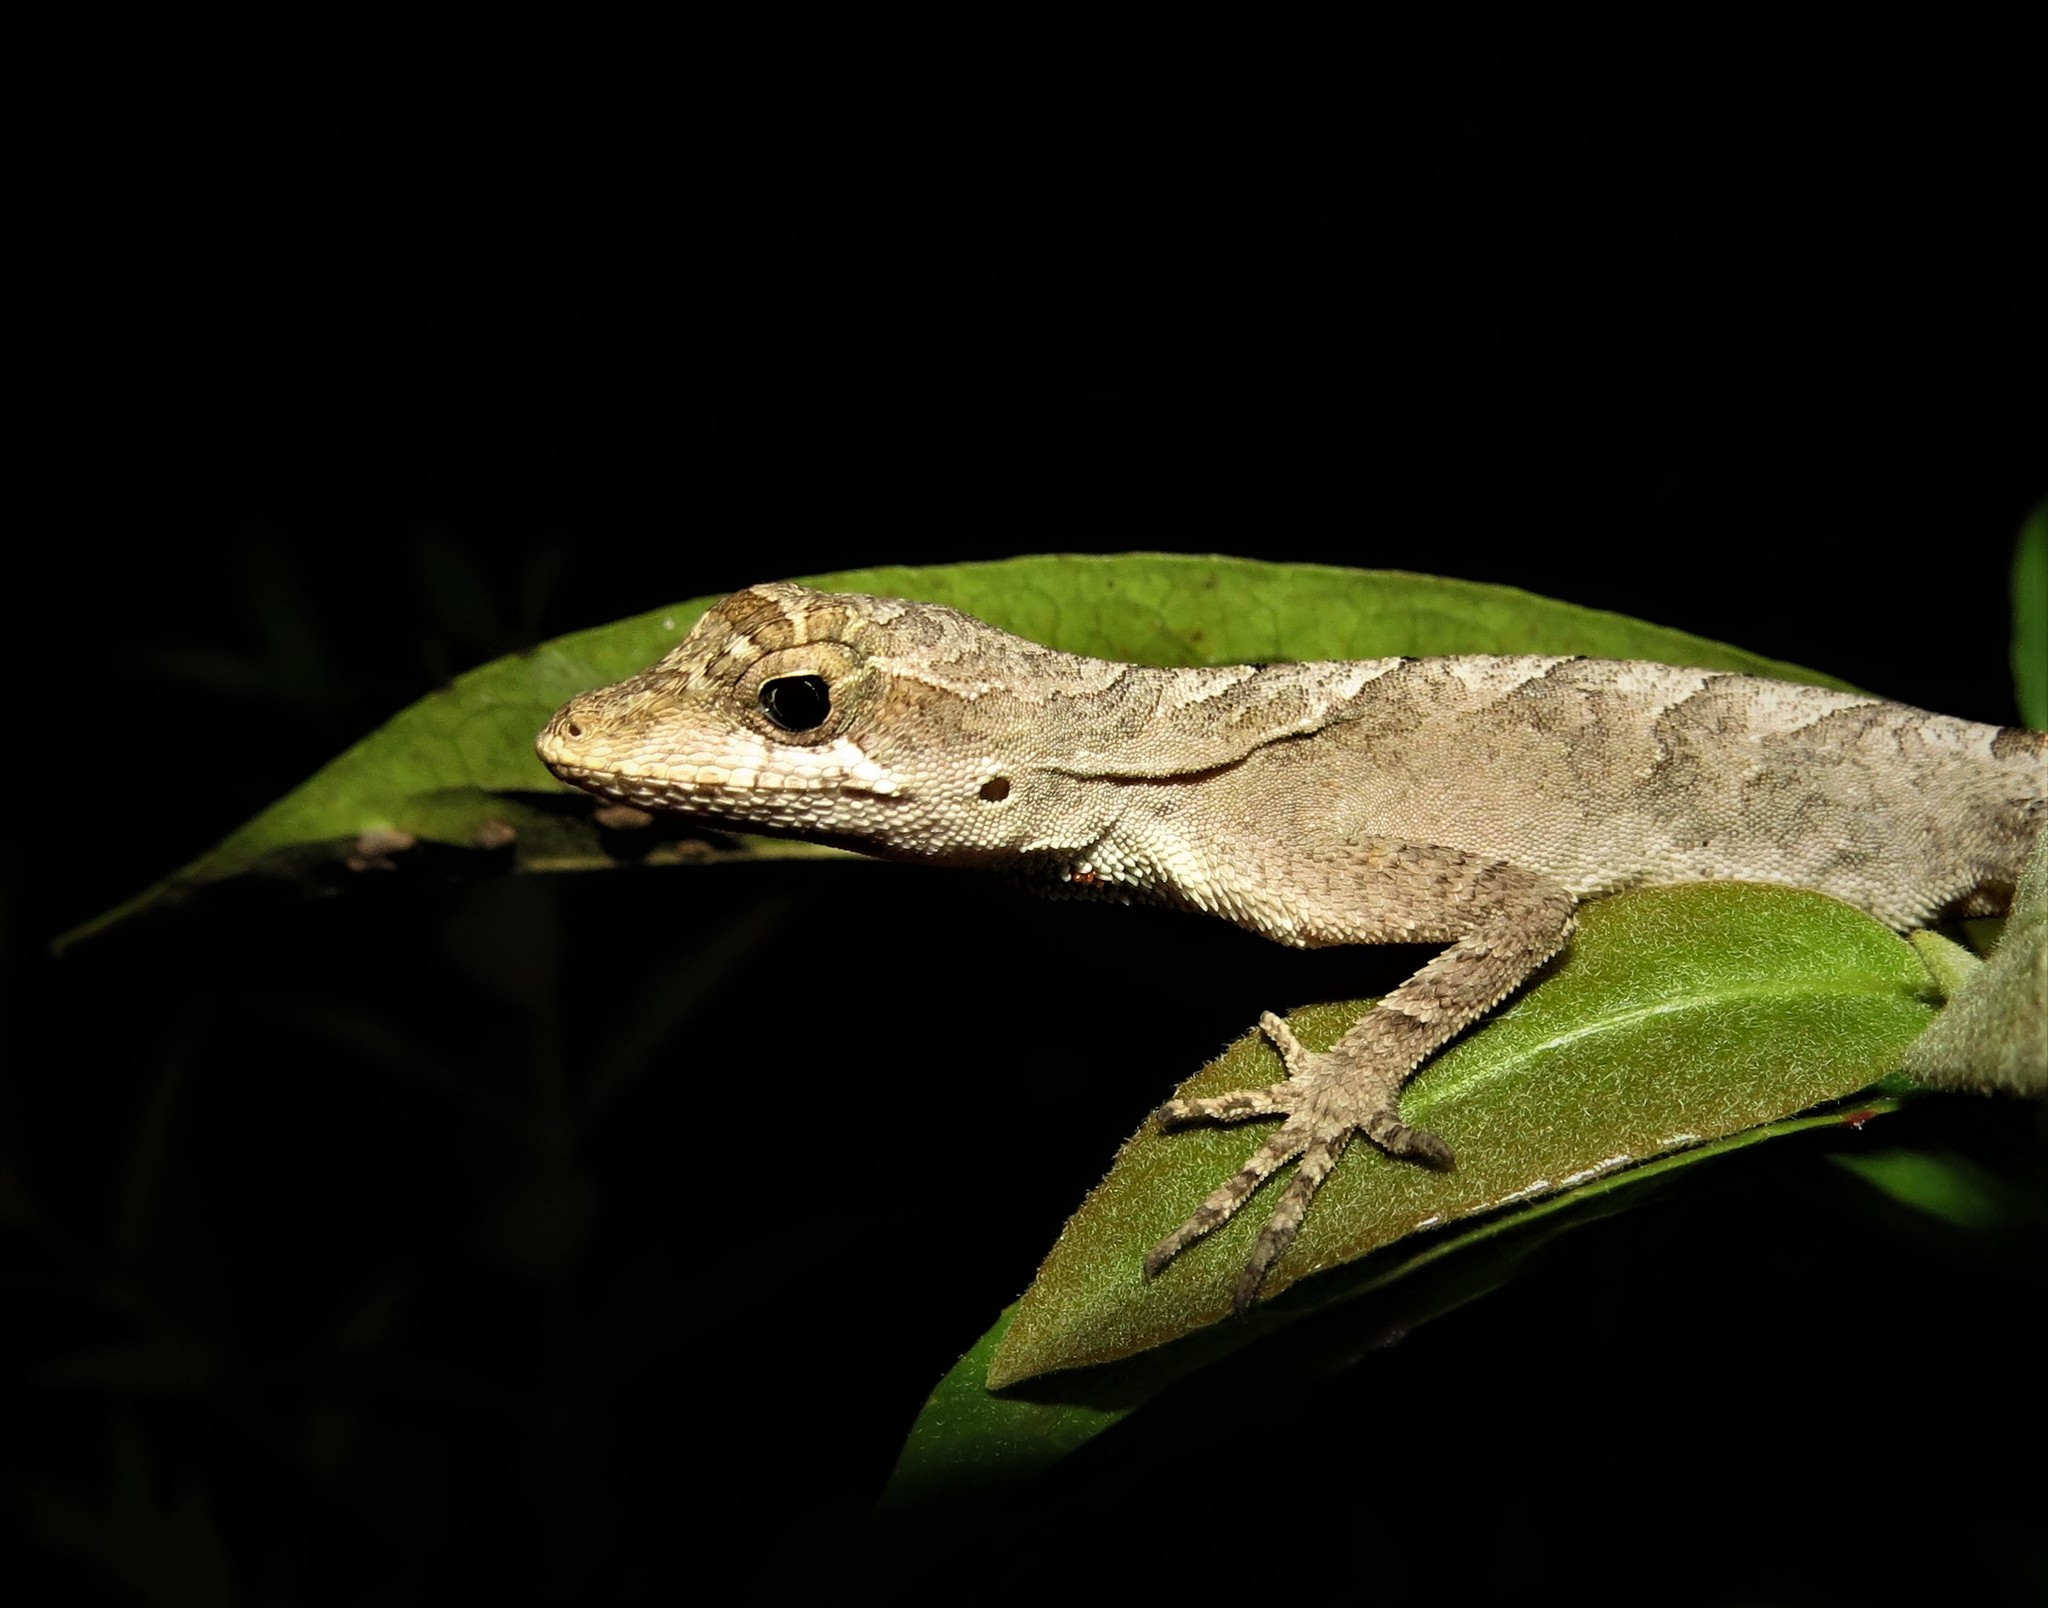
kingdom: Animalia
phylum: Chordata
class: Squamata
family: Dactyloidae
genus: Anolis
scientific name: Anolis brasiliensis
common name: Brazilian anole
